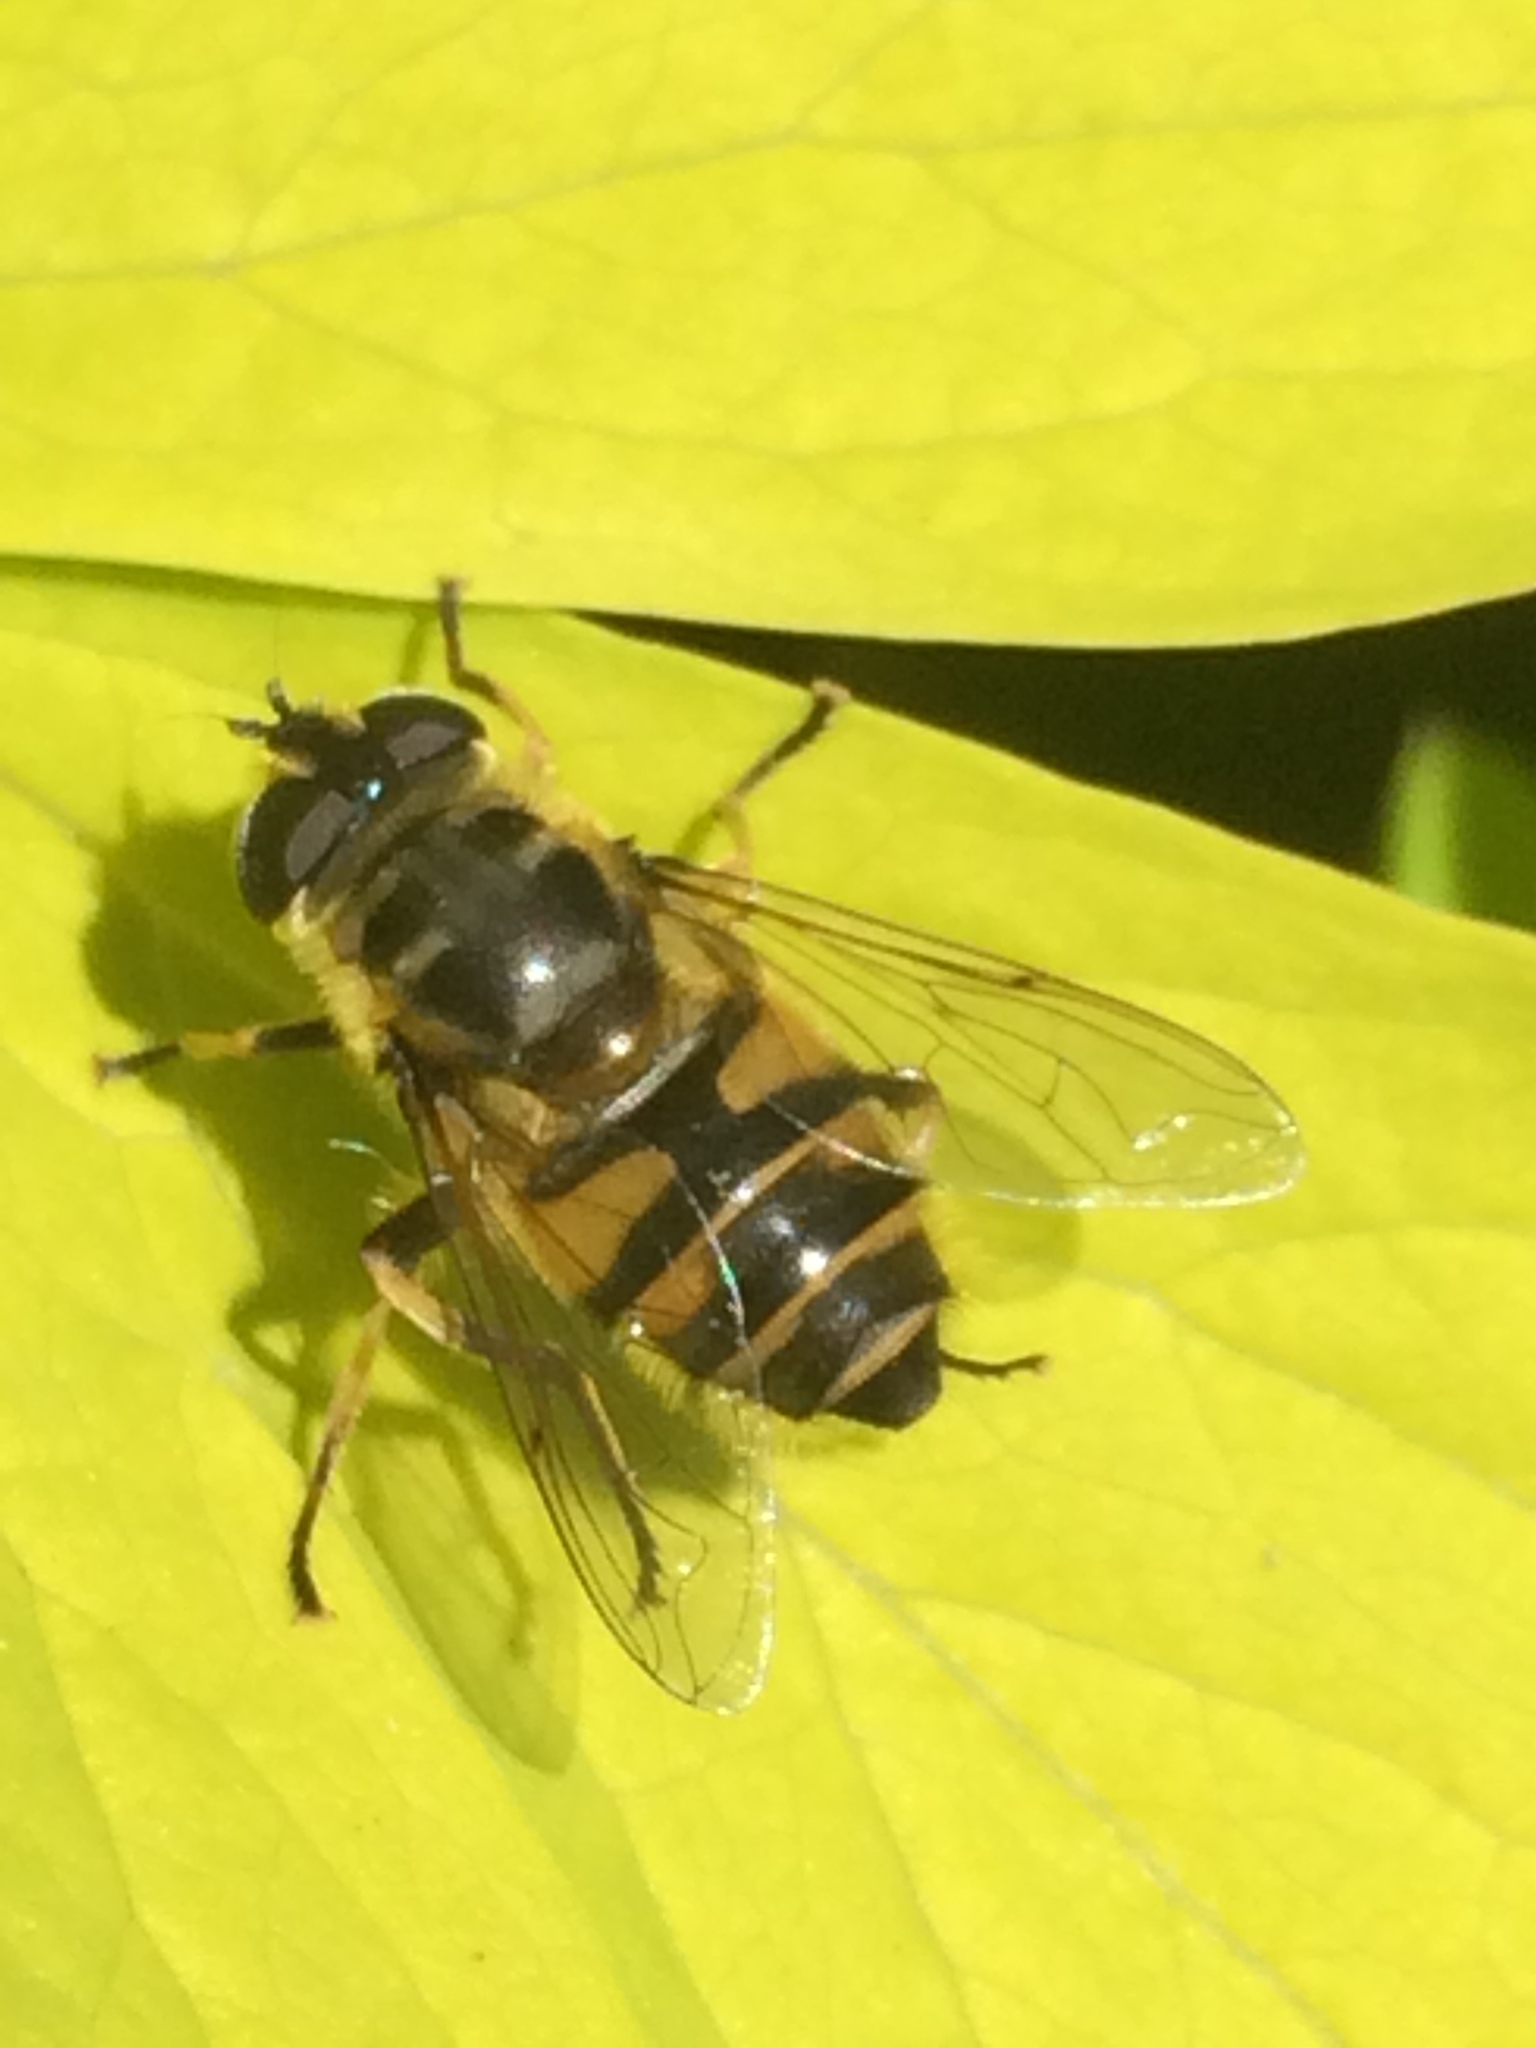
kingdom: Animalia
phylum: Arthropoda
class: Insecta
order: Diptera
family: Syrphidae
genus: Myathropa
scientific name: Myathropa florea
